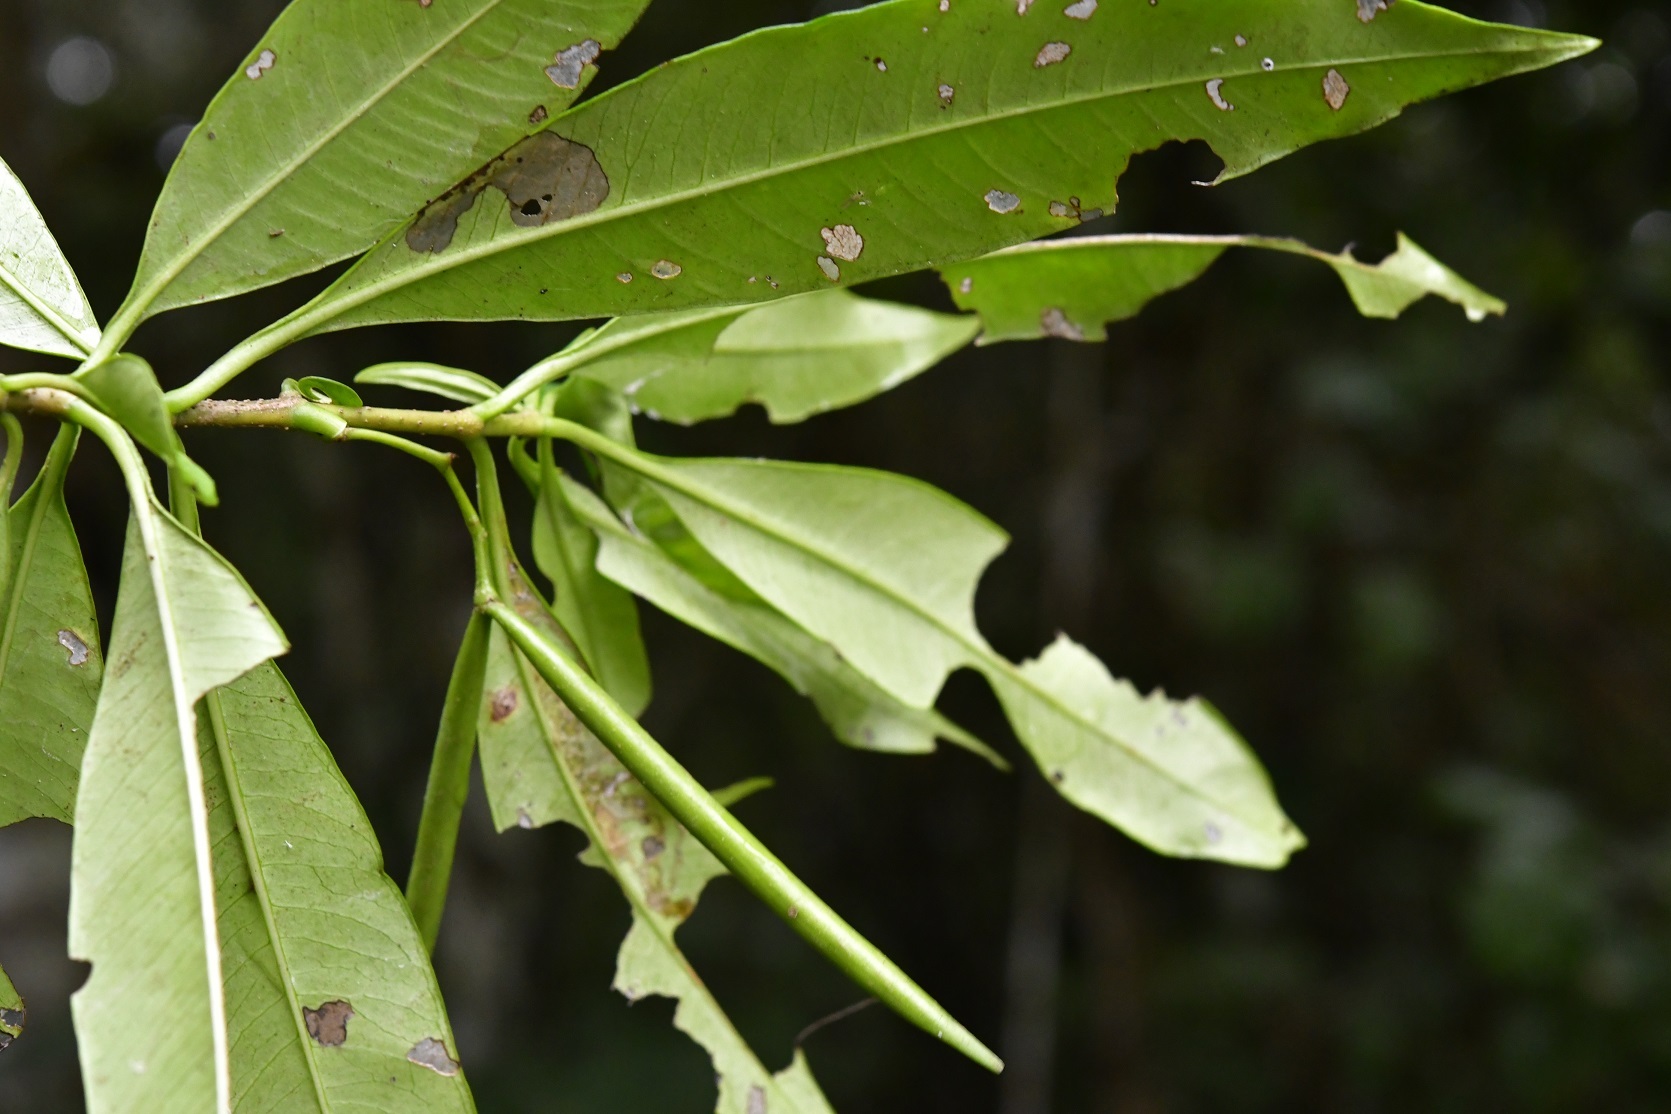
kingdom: Plantae
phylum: Tracheophyta
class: Magnoliopsida
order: Gentianales
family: Apocynaceae
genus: Tonduzia
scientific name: Tonduzia longifolia
